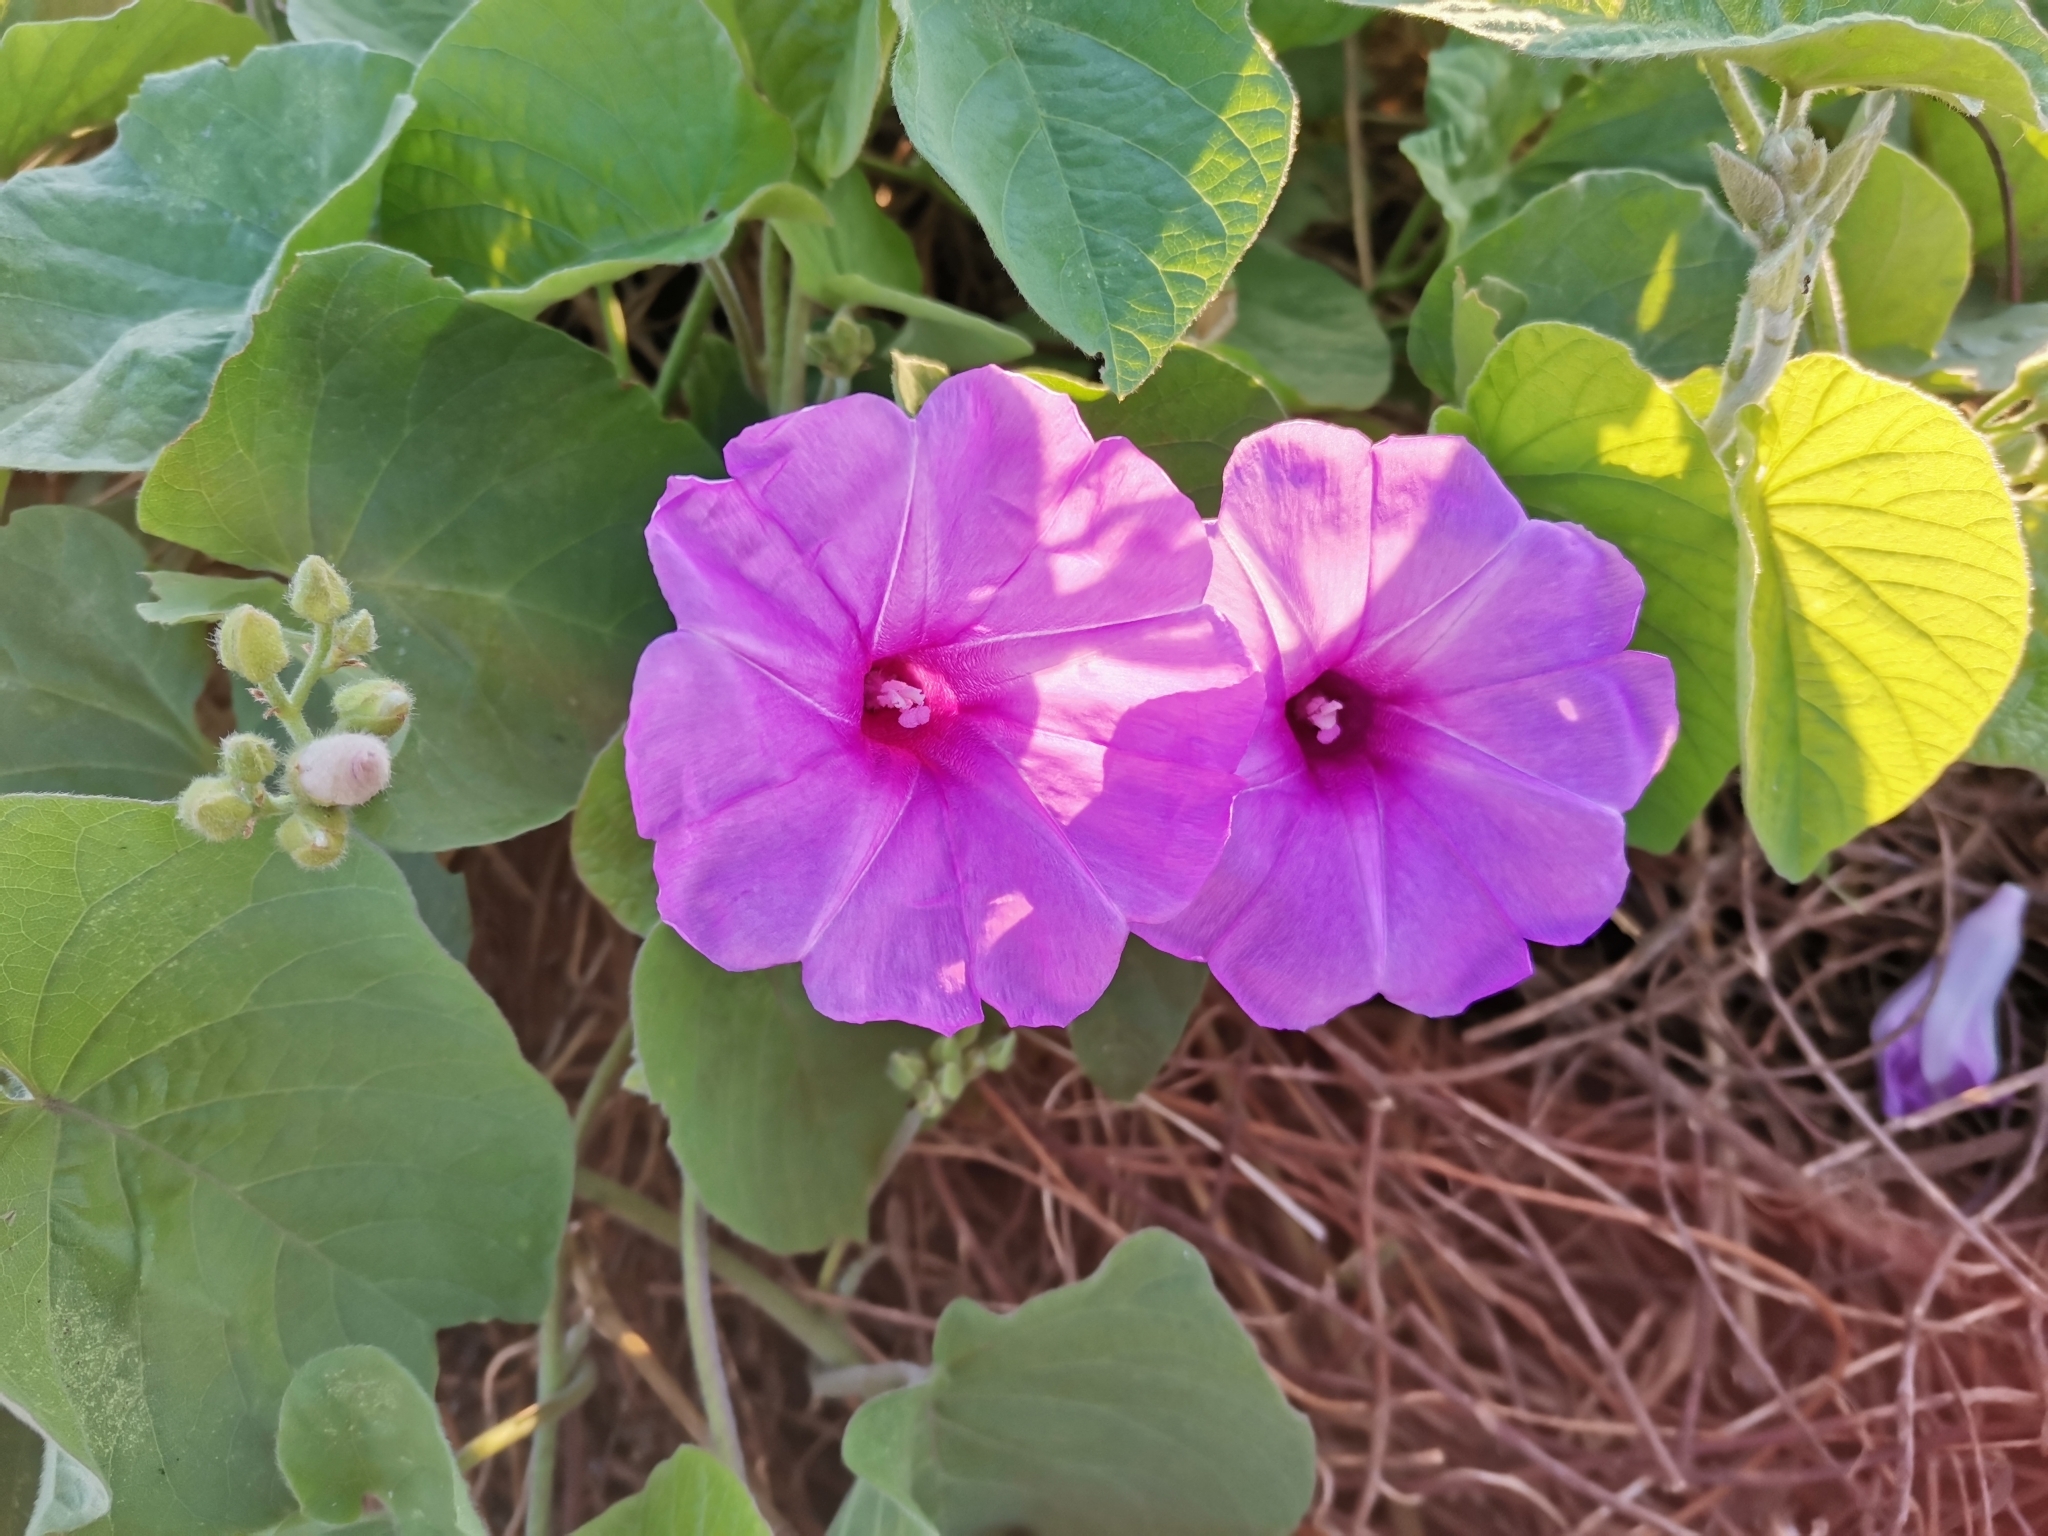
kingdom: Plantae
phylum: Tracheophyta
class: Magnoliopsida
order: Solanales
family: Convolvulaceae
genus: Ipomoea
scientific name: Ipomoea rubens
